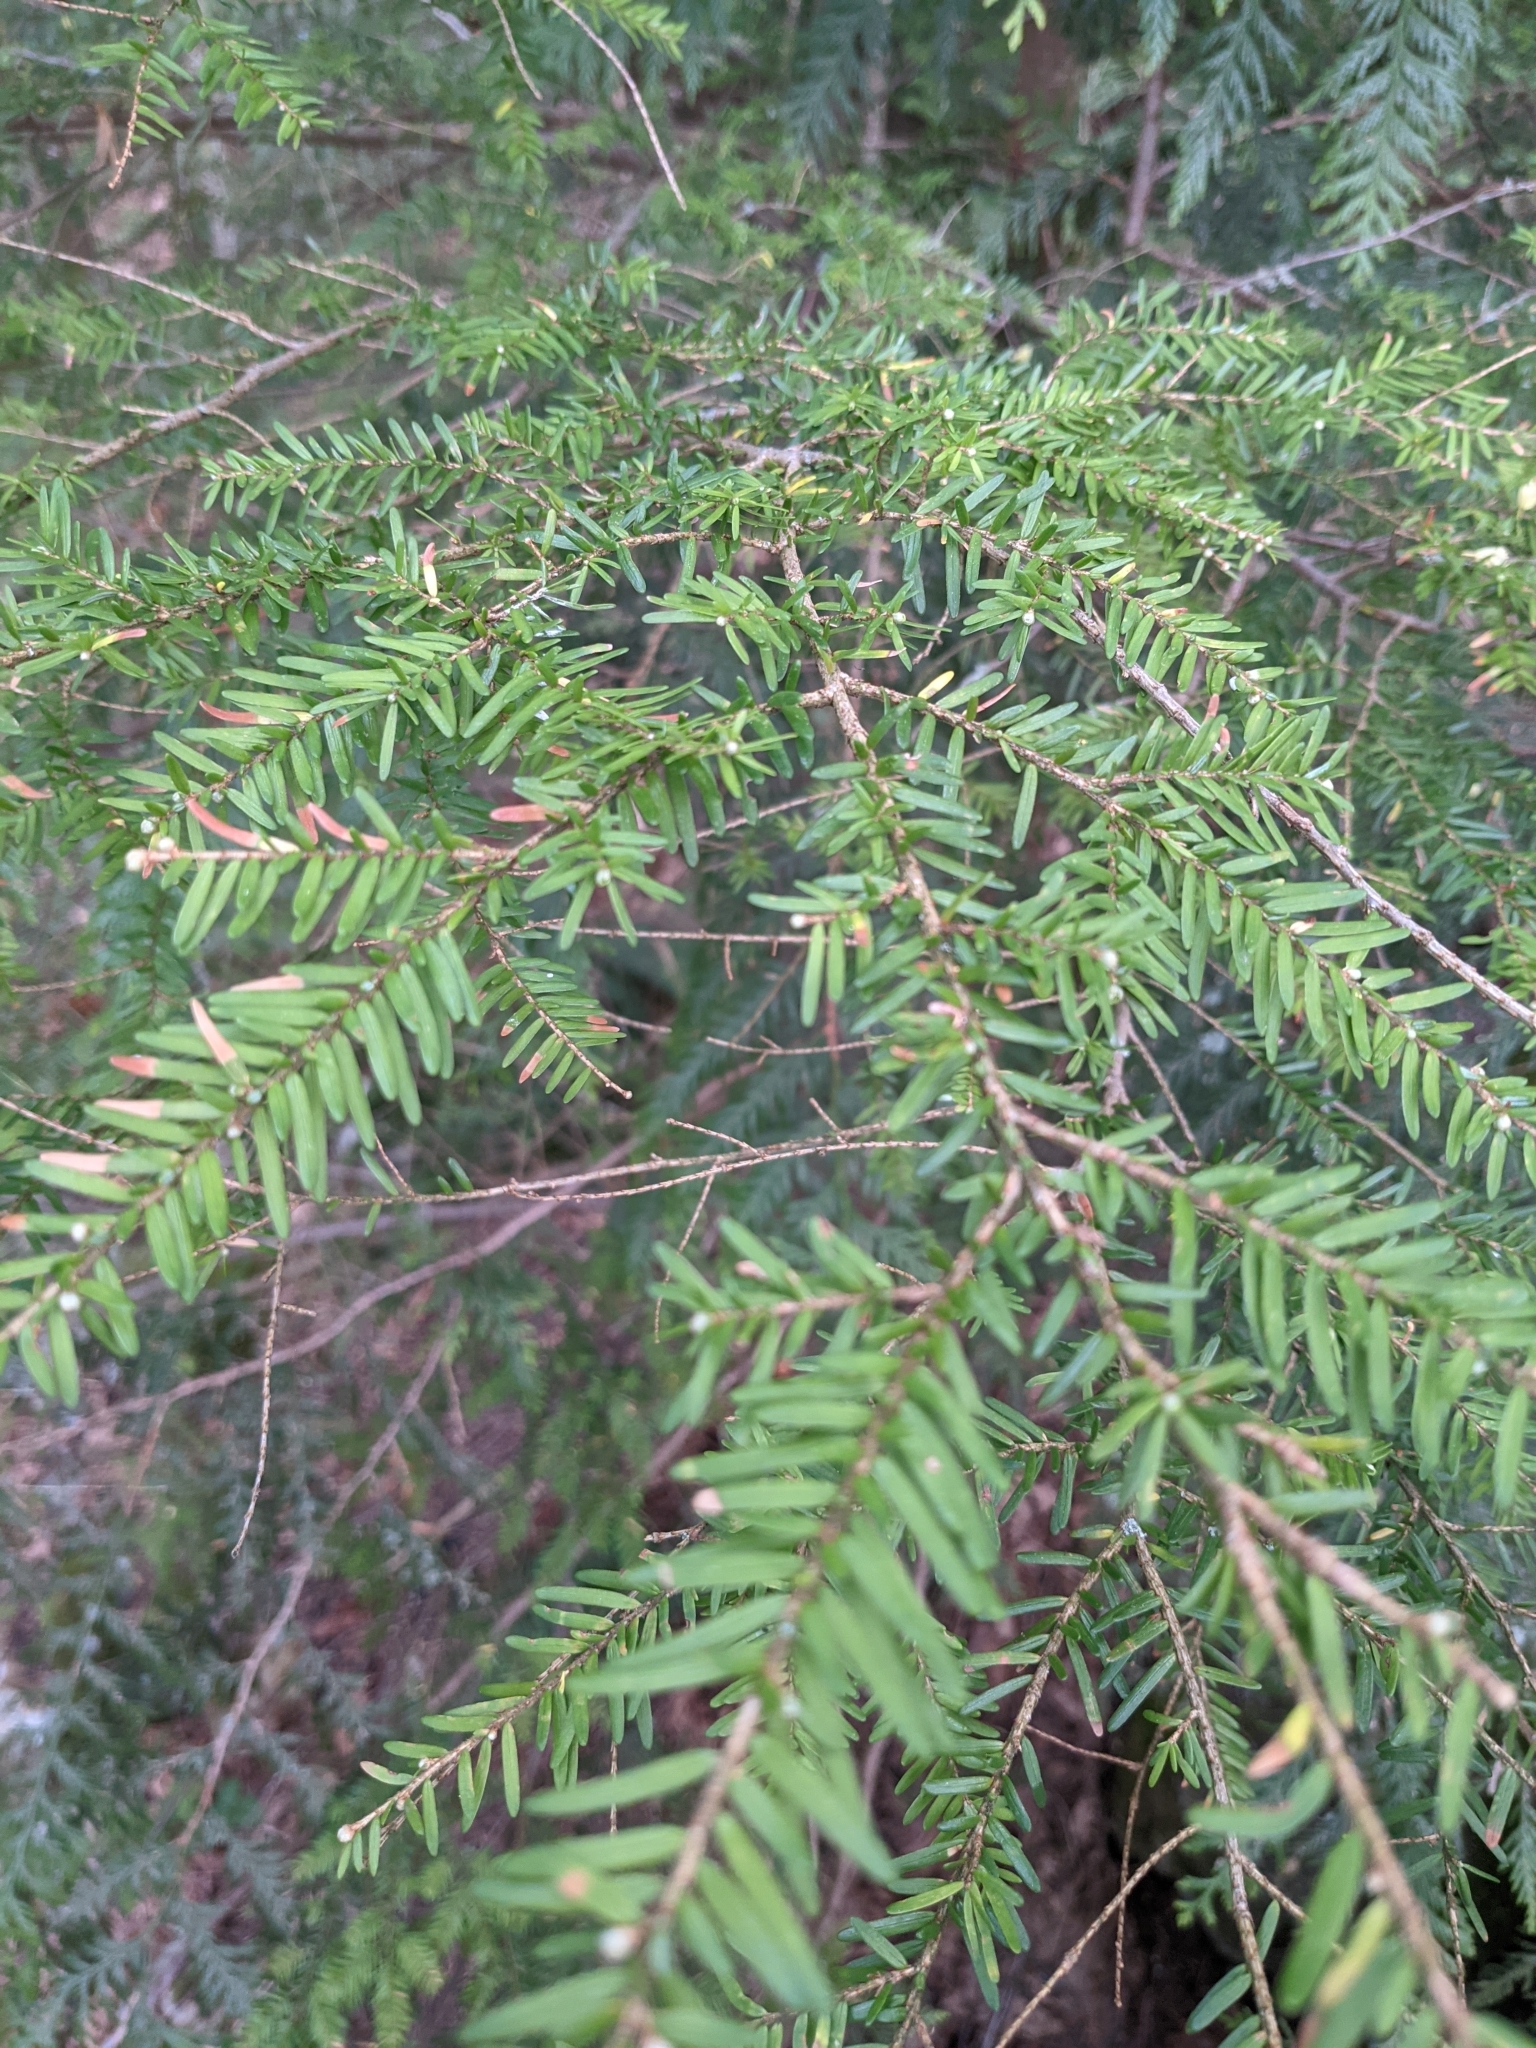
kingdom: Plantae
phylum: Tracheophyta
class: Pinopsida
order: Pinales
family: Pinaceae
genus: Tsuga
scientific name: Tsuga heterophylla
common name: Western hemlock
